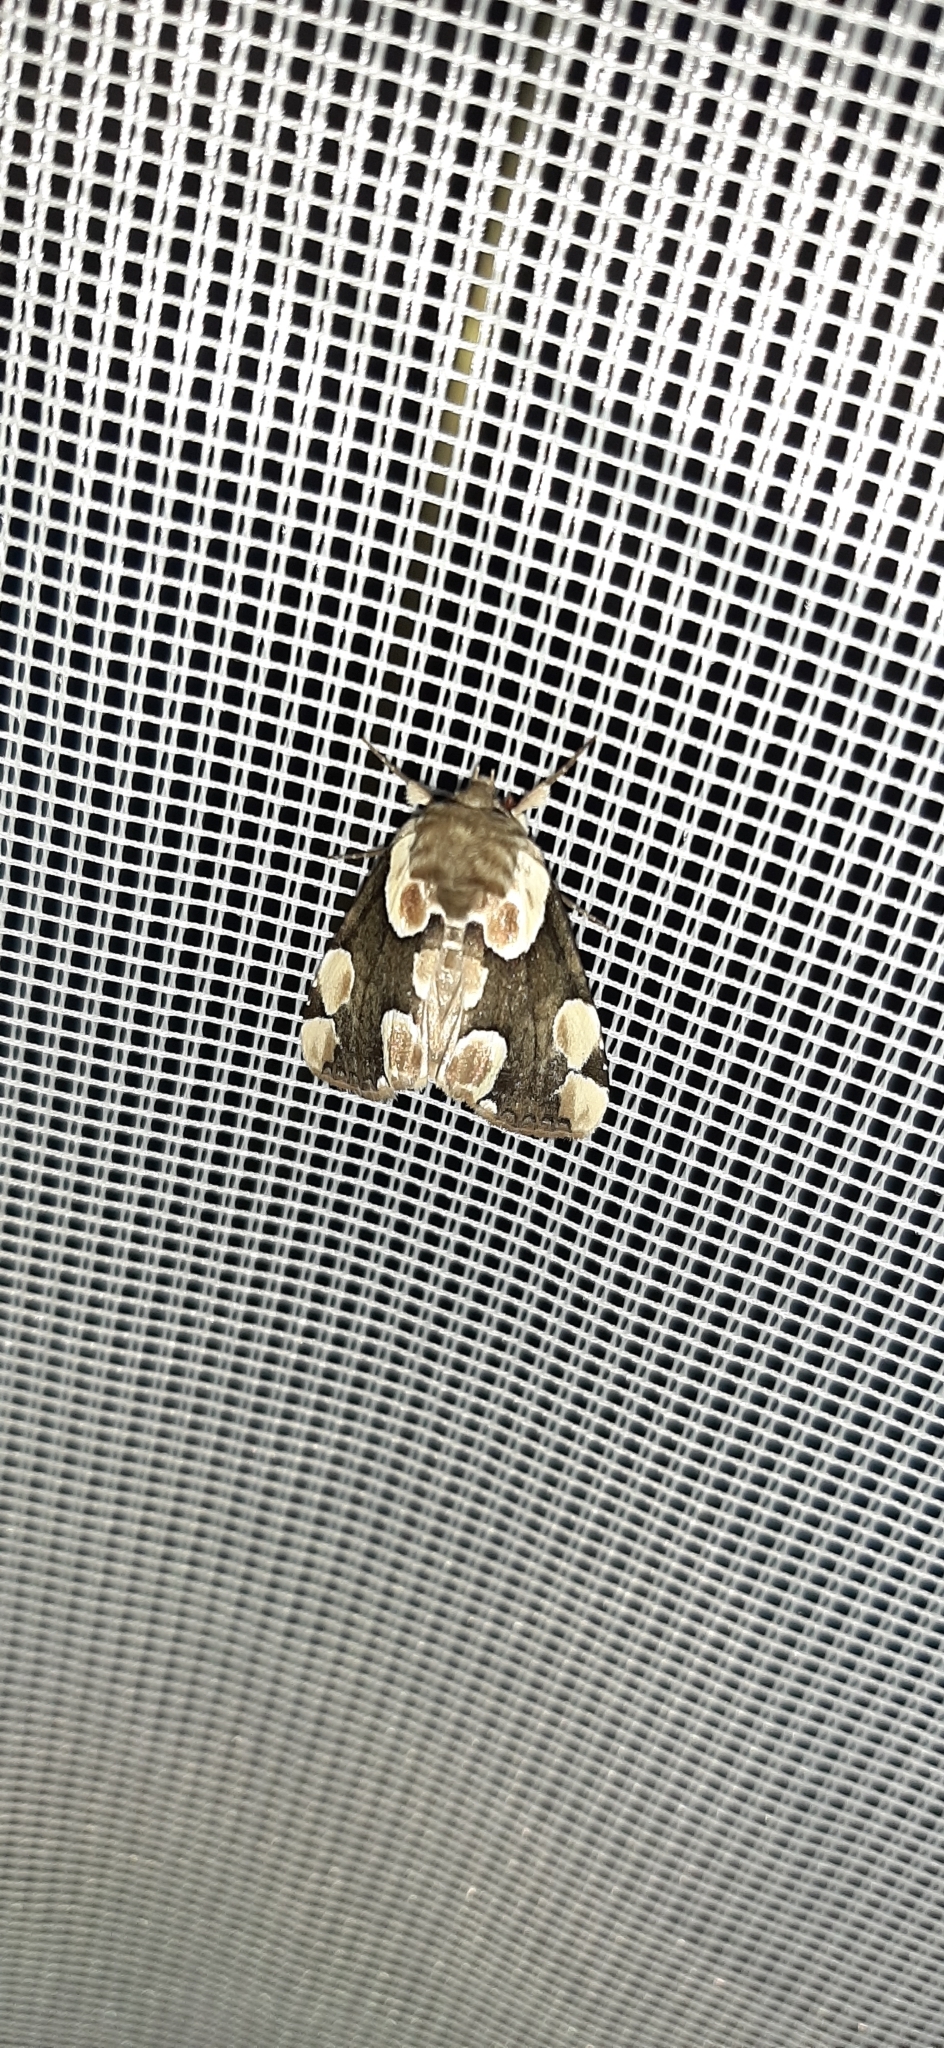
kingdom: Animalia
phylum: Arthropoda
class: Insecta
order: Lepidoptera
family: Drepanidae
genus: Thyatira
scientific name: Thyatira batis
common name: Peach blossom
